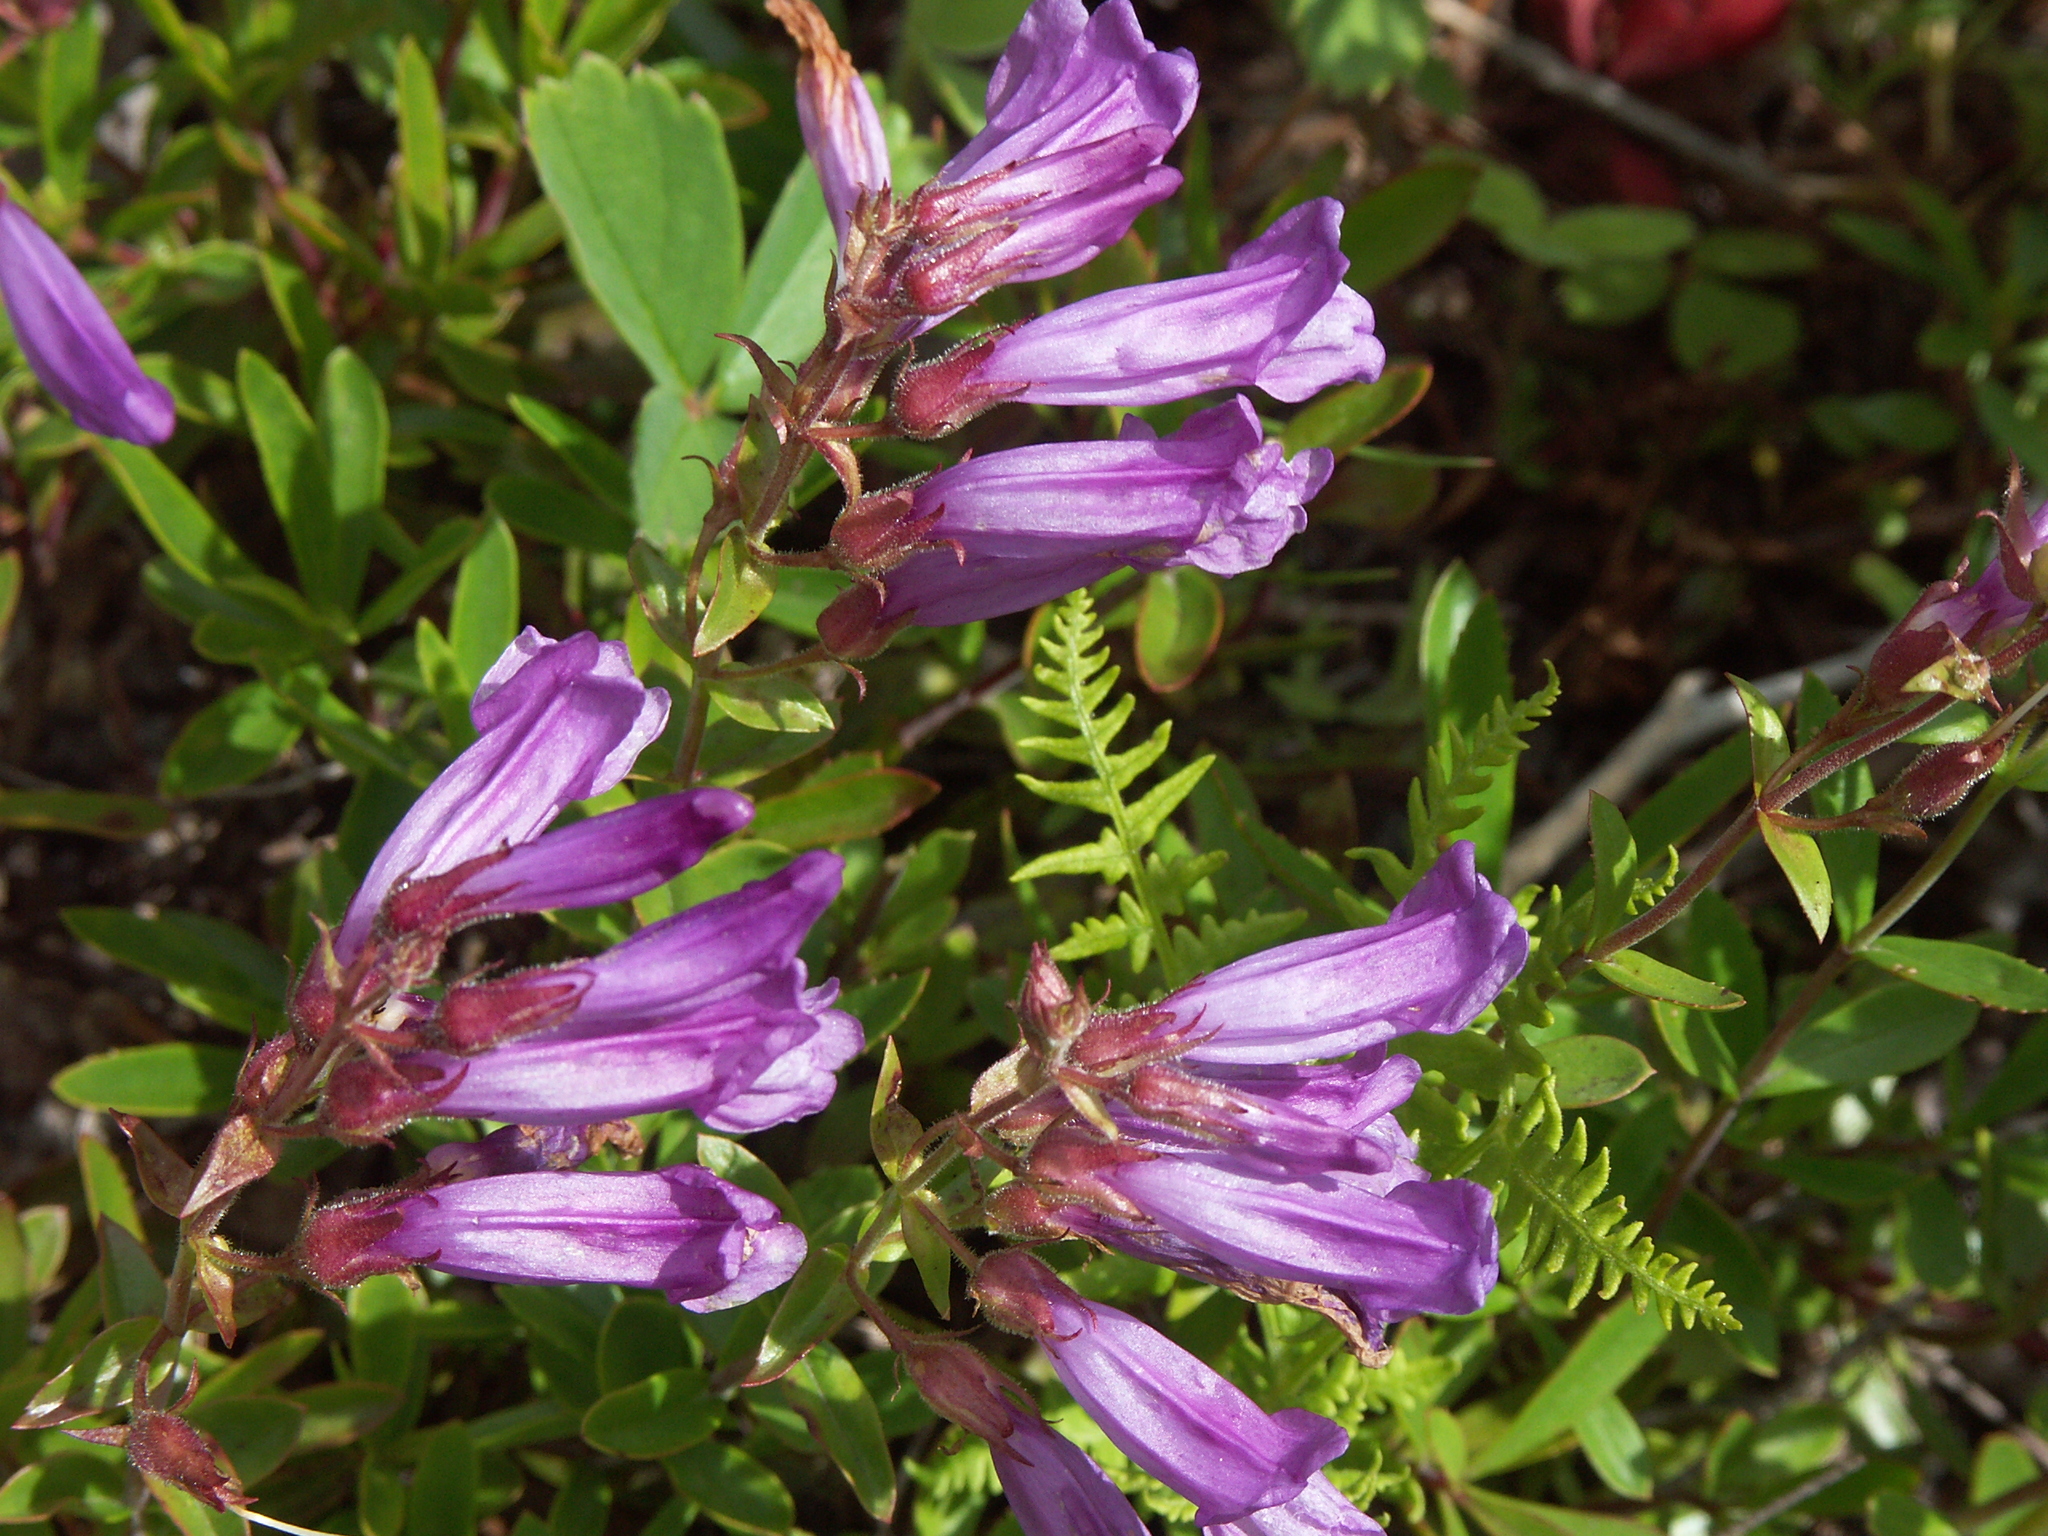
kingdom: Plantae
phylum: Tracheophyta
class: Magnoliopsida
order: Lamiales
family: Plantaginaceae
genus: Penstemon
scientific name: Penstemon fruticosus
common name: Bush penstemon
